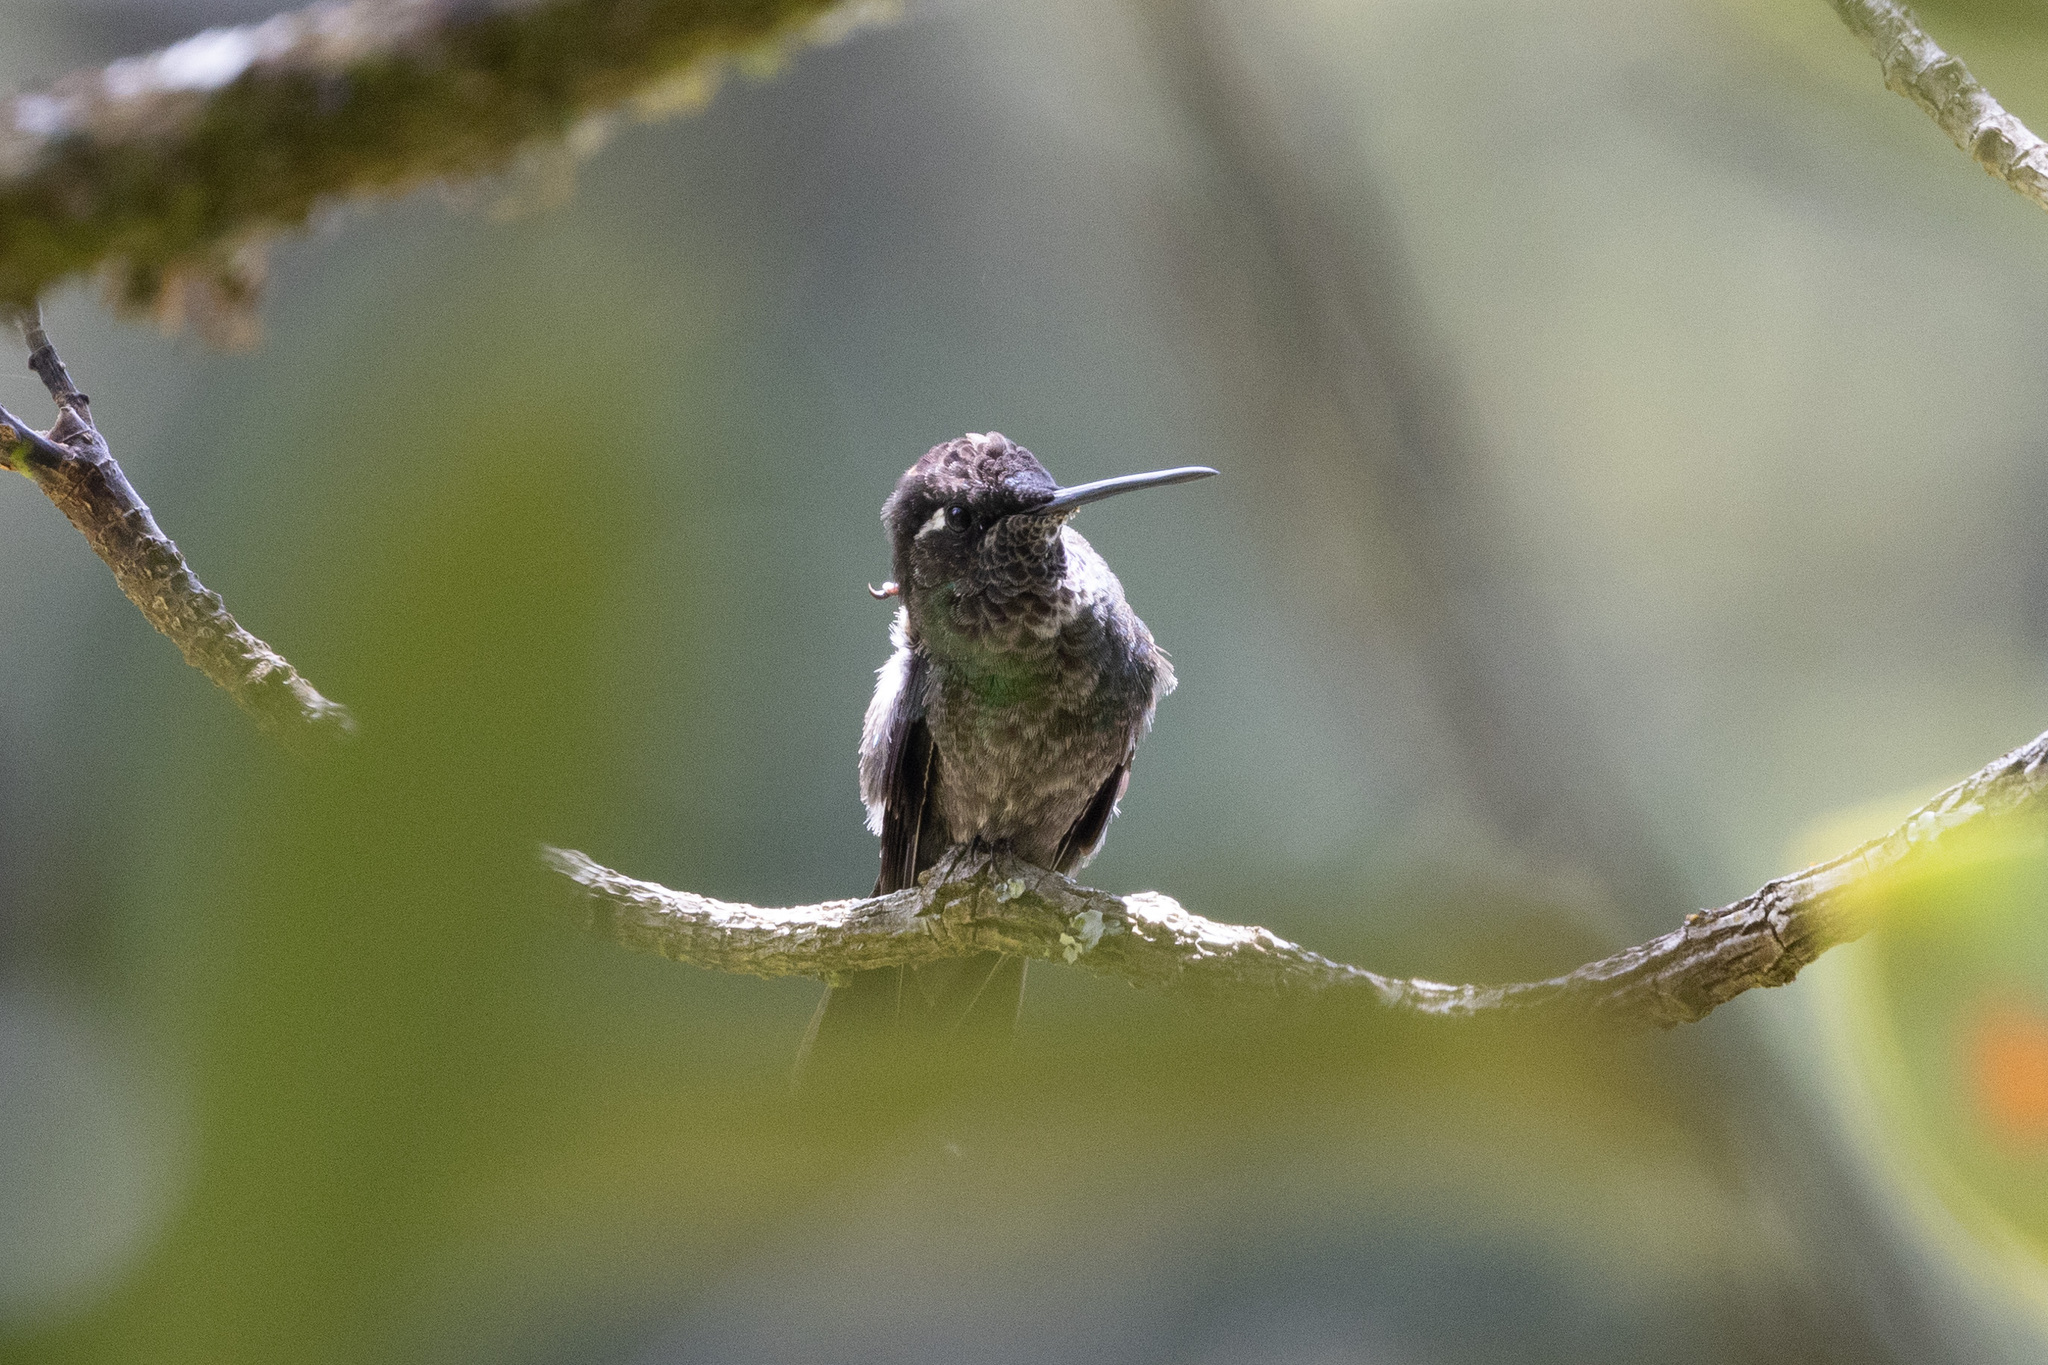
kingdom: Animalia
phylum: Chordata
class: Aves
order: Apodiformes
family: Trochilidae
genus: Eugenes
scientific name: Eugenes spectabilis
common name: Talamanca hummingbird
